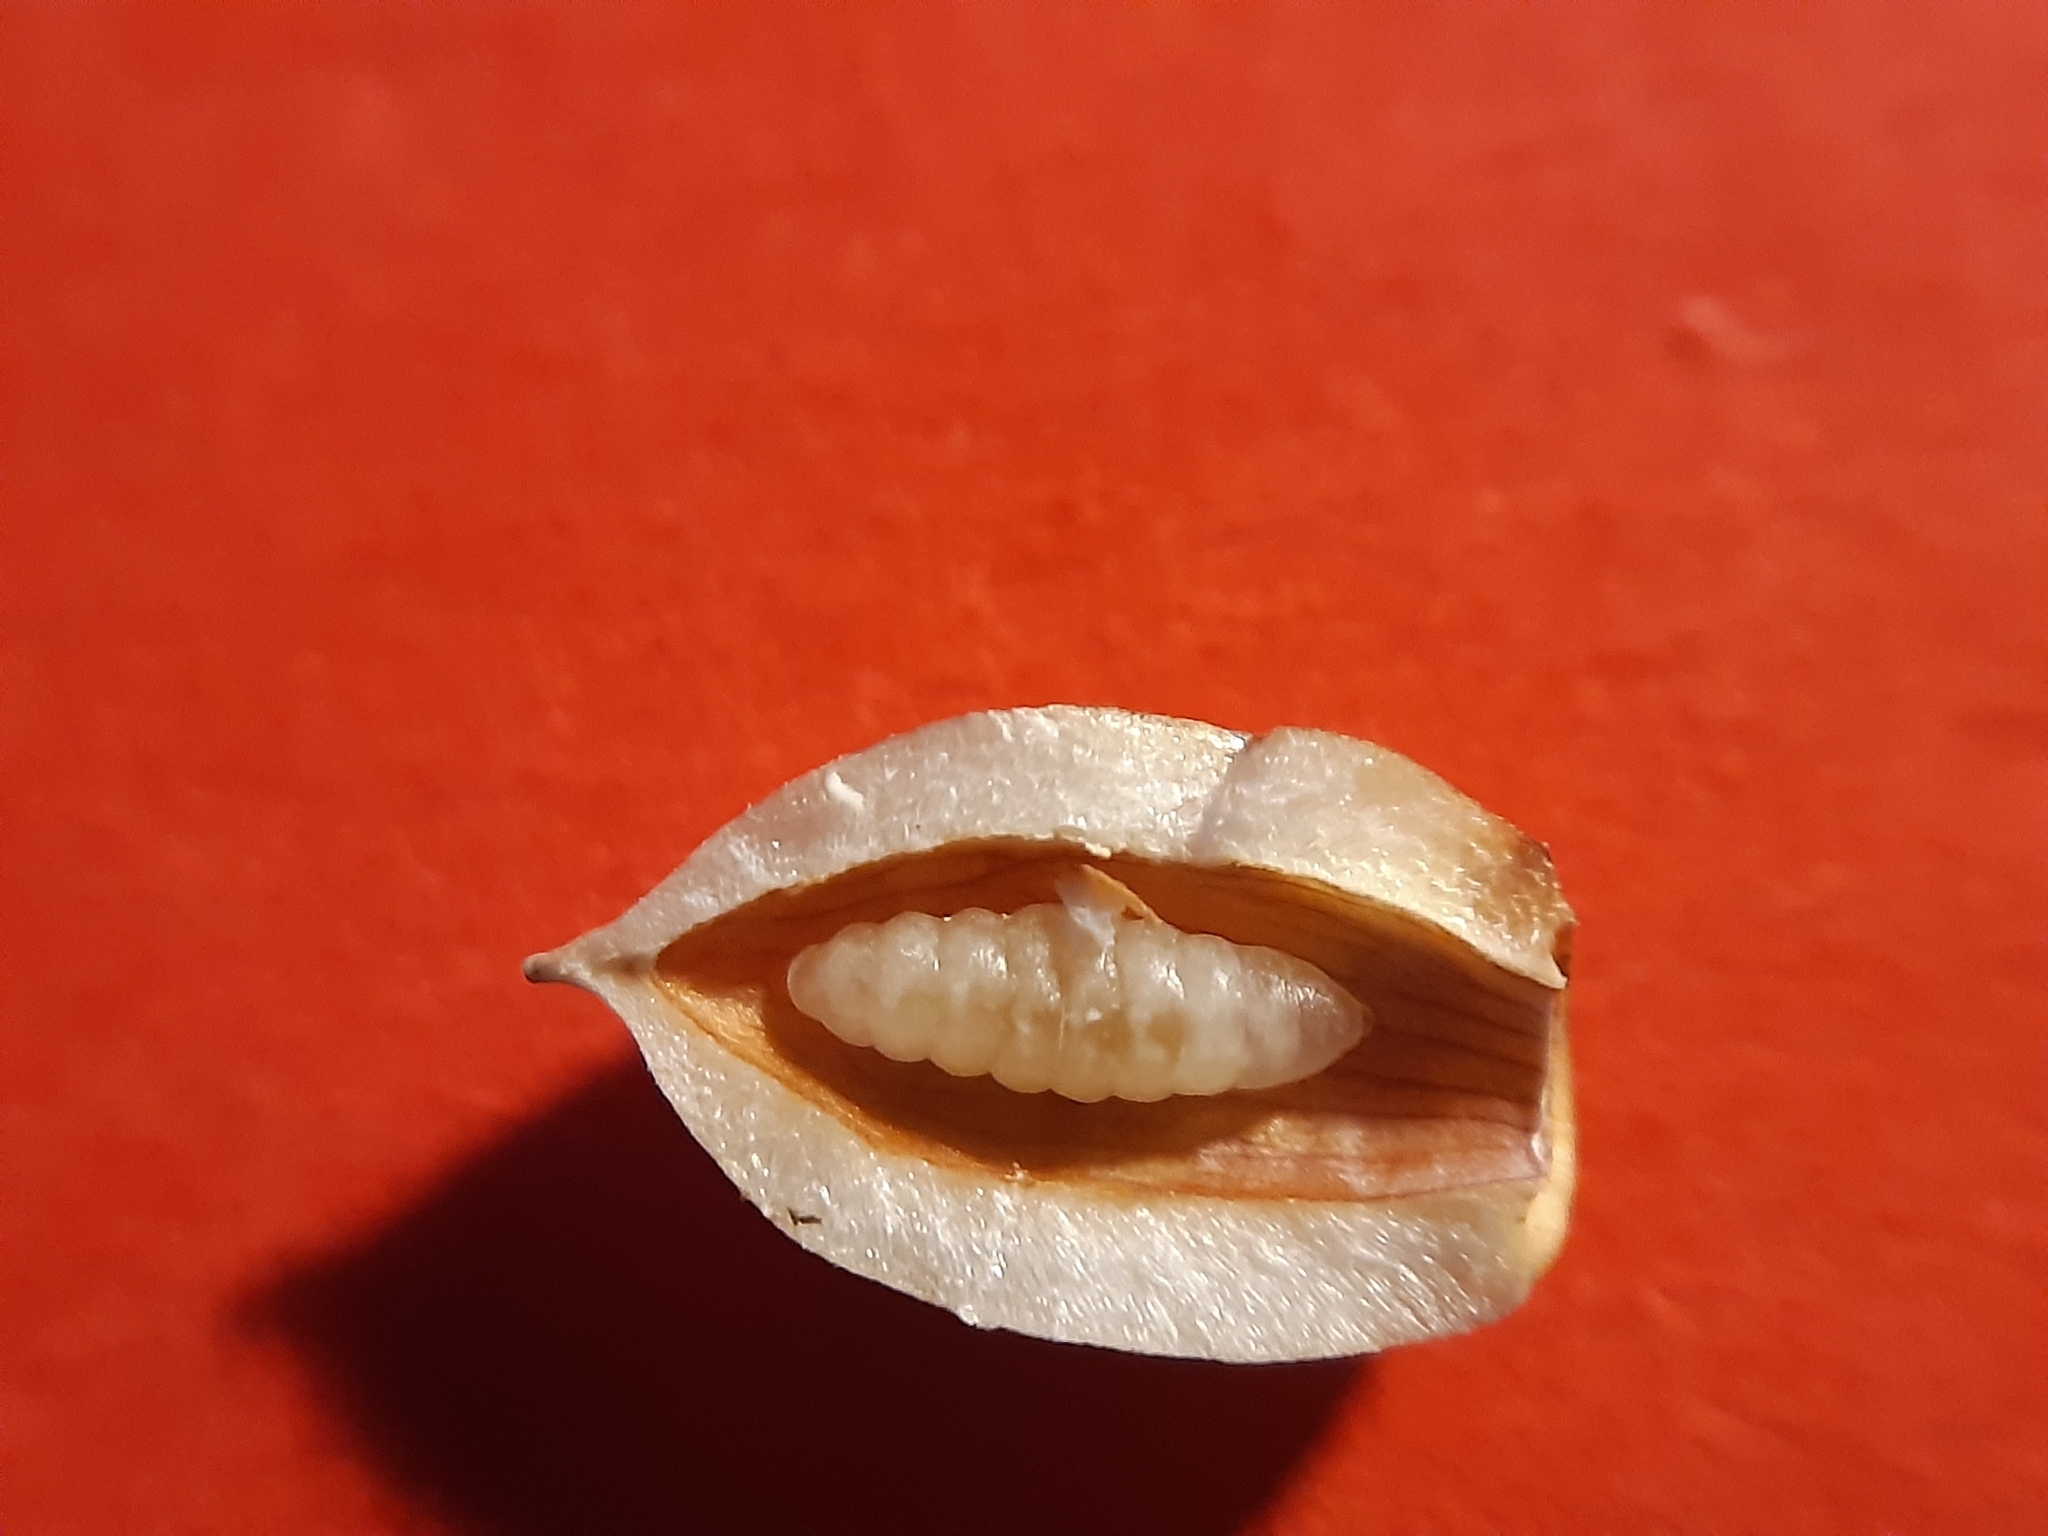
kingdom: Animalia
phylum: Arthropoda
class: Insecta
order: Diptera
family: Cecidomyiidae
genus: Mikiola
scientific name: Mikiola fagi
